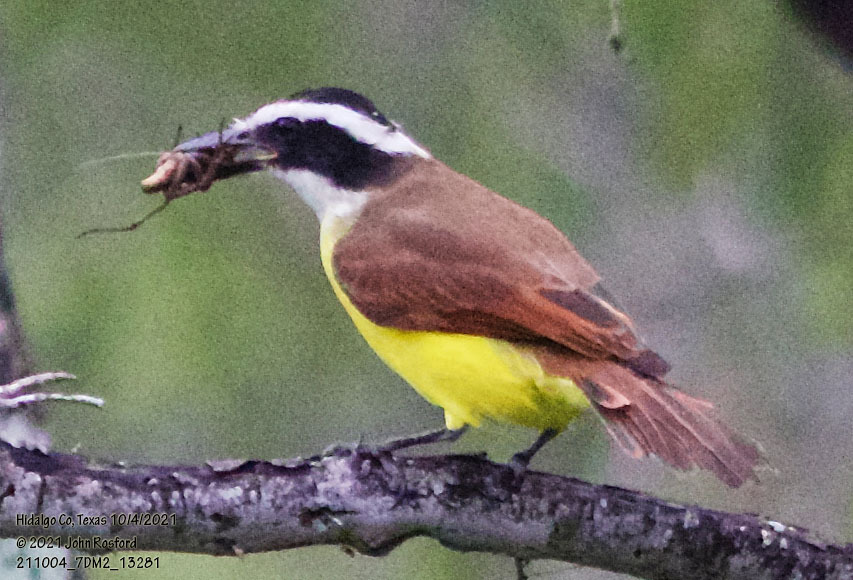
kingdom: Animalia
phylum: Chordata
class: Aves
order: Passeriformes
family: Tyrannidae
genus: Pitangus
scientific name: Pitangus sulphuratus
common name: Great kiskadee
